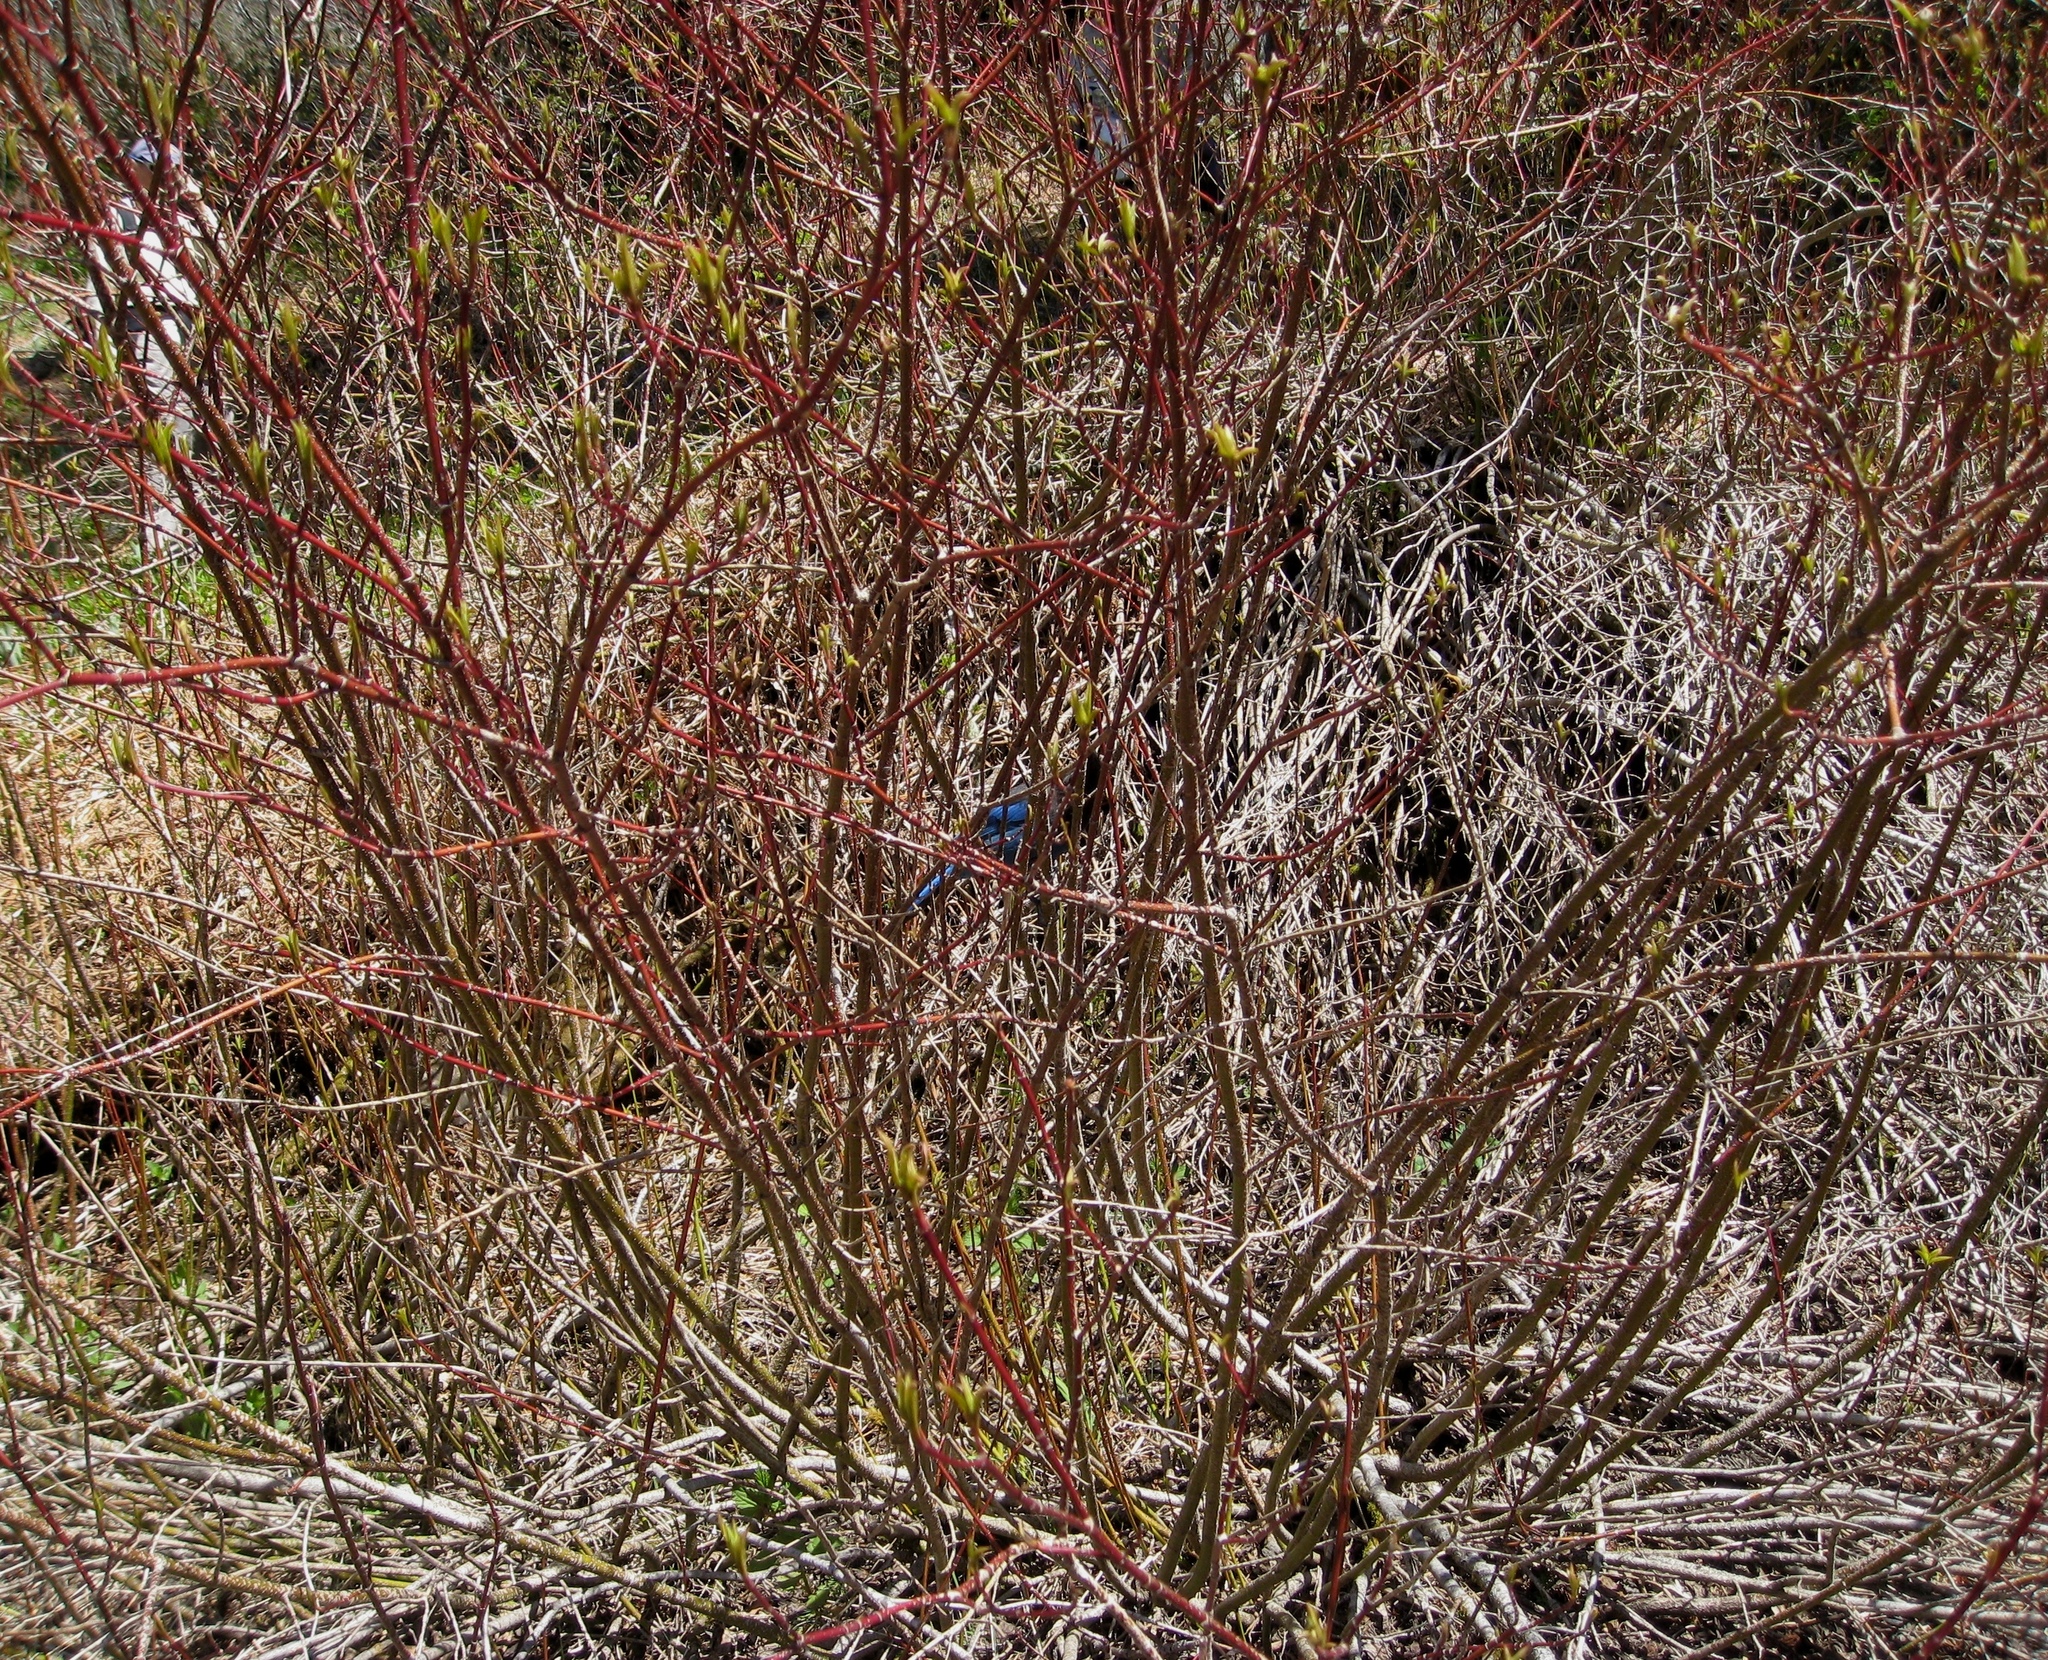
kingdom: Animalia
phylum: Chordata
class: Aves
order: Passeriformes
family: Corvidae
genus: Cyanocitta
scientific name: Cyanocitta stelleri
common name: Steller's jay
